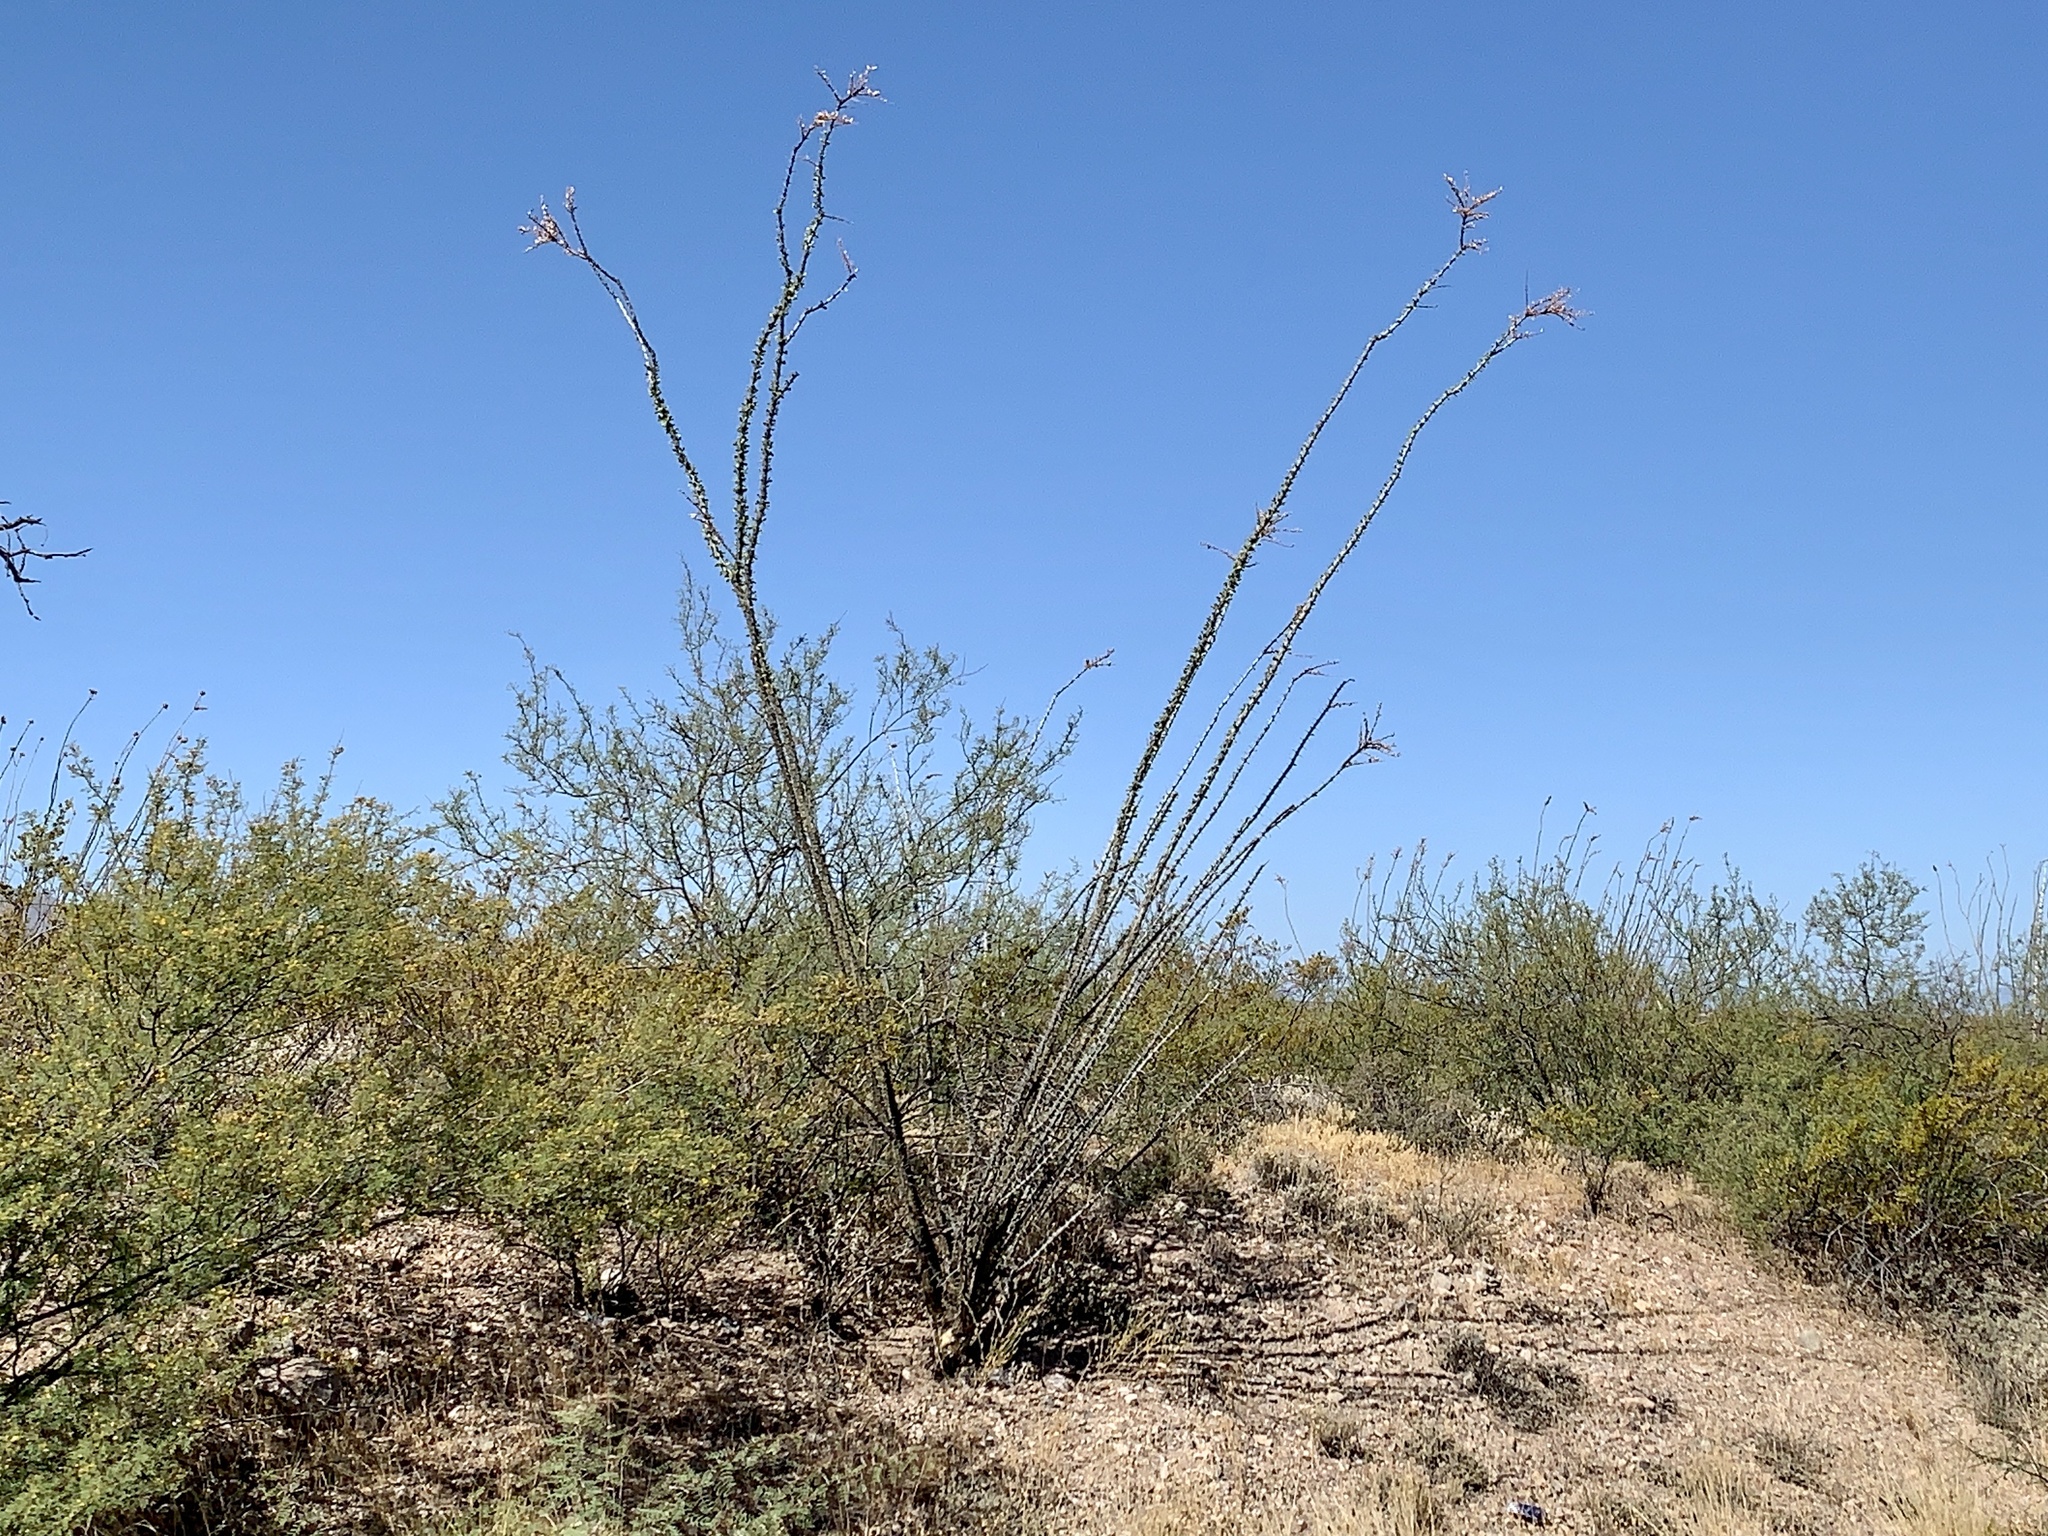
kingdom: Plantae
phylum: Tracheophyta
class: Magnoliopsida
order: Ericales
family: Fouquieriaceae
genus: Fouquieria
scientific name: Fouquieria splendens
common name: Vine-cactus
